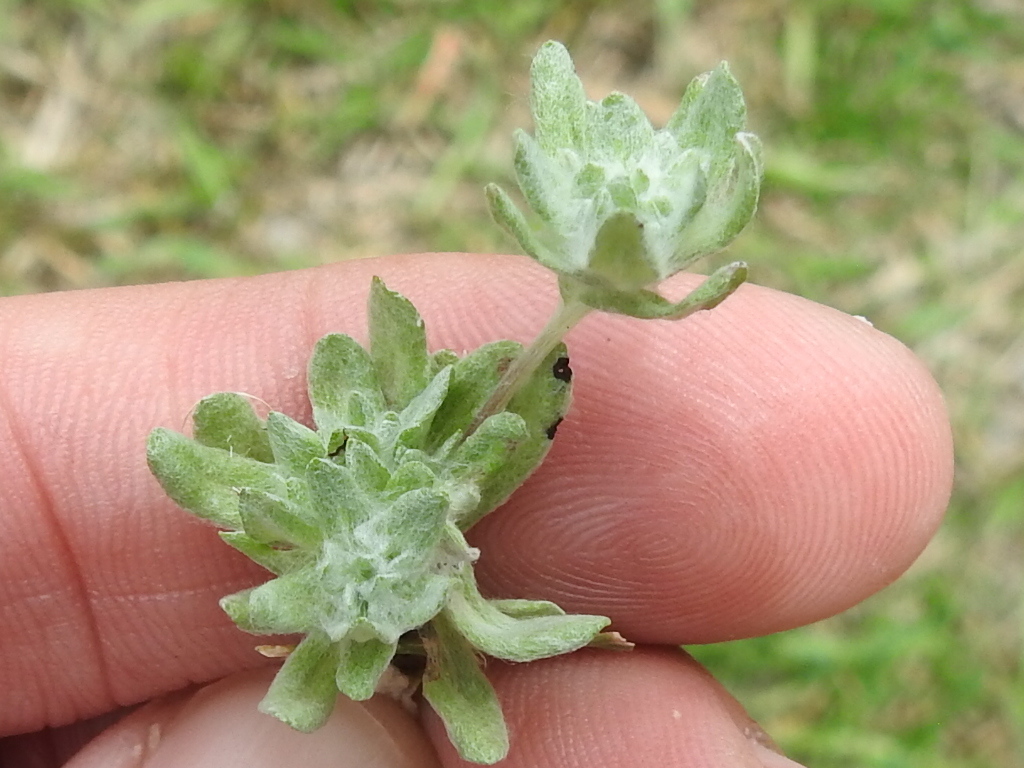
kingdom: Plantae
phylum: Tracheophyta
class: Magnoliopsida
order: Asterales
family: Asteraceae
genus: Diaperia
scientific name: Diaperia prolifera
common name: Big-head rabbit-tobacco
